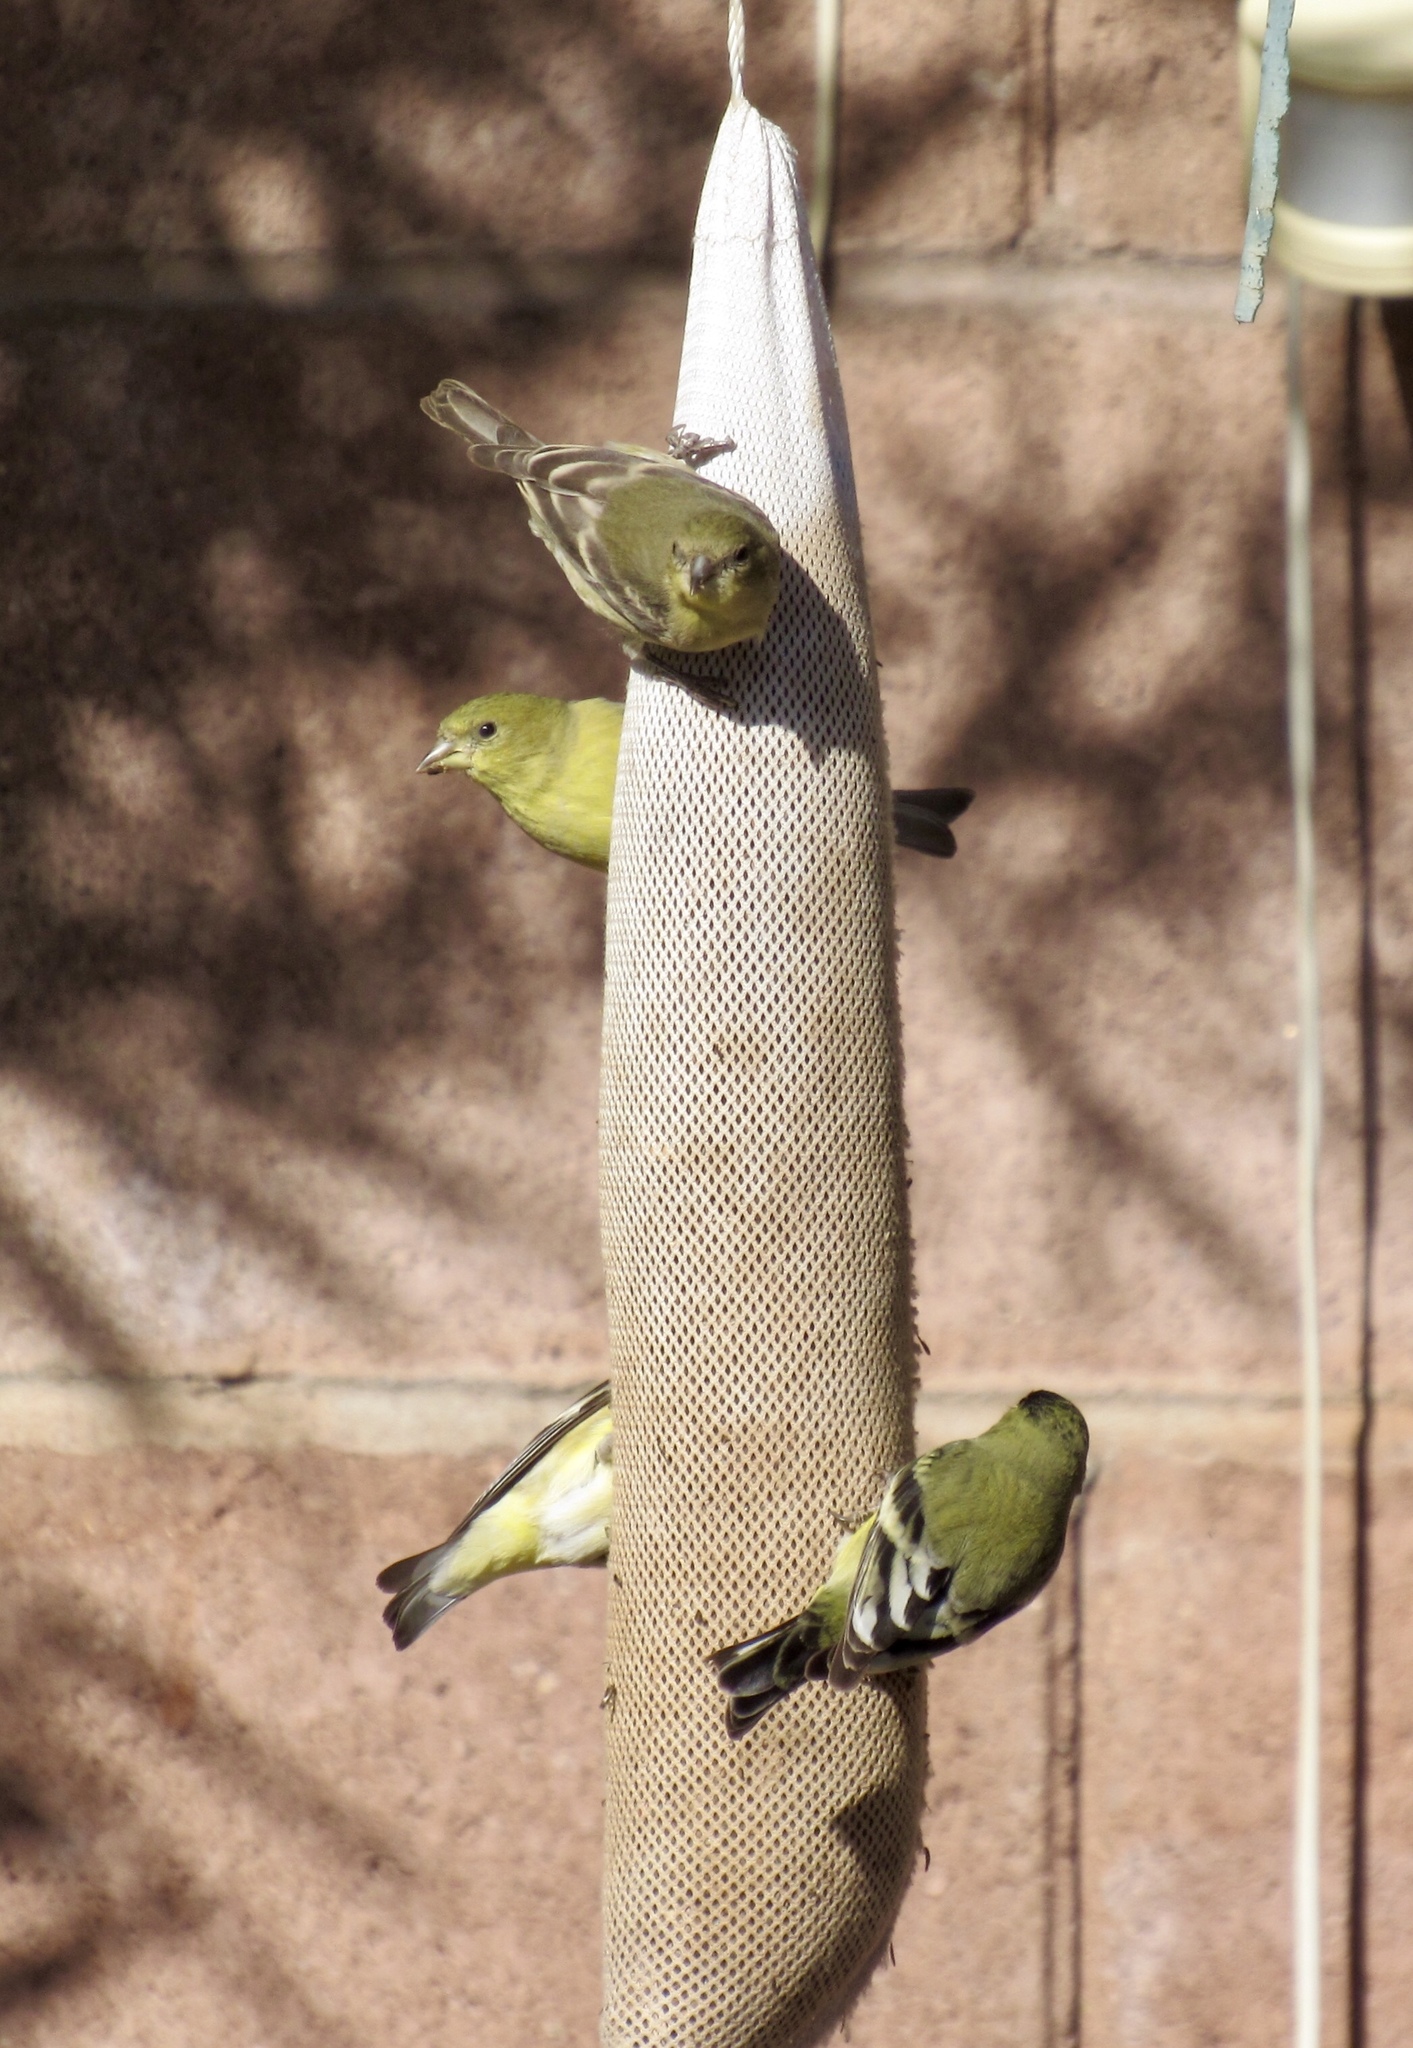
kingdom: Animalia
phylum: Chordata
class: Aves
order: Passeriformes
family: Fringillidae
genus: Spinus
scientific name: Spinus psaltria
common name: Lesser goldfinch
